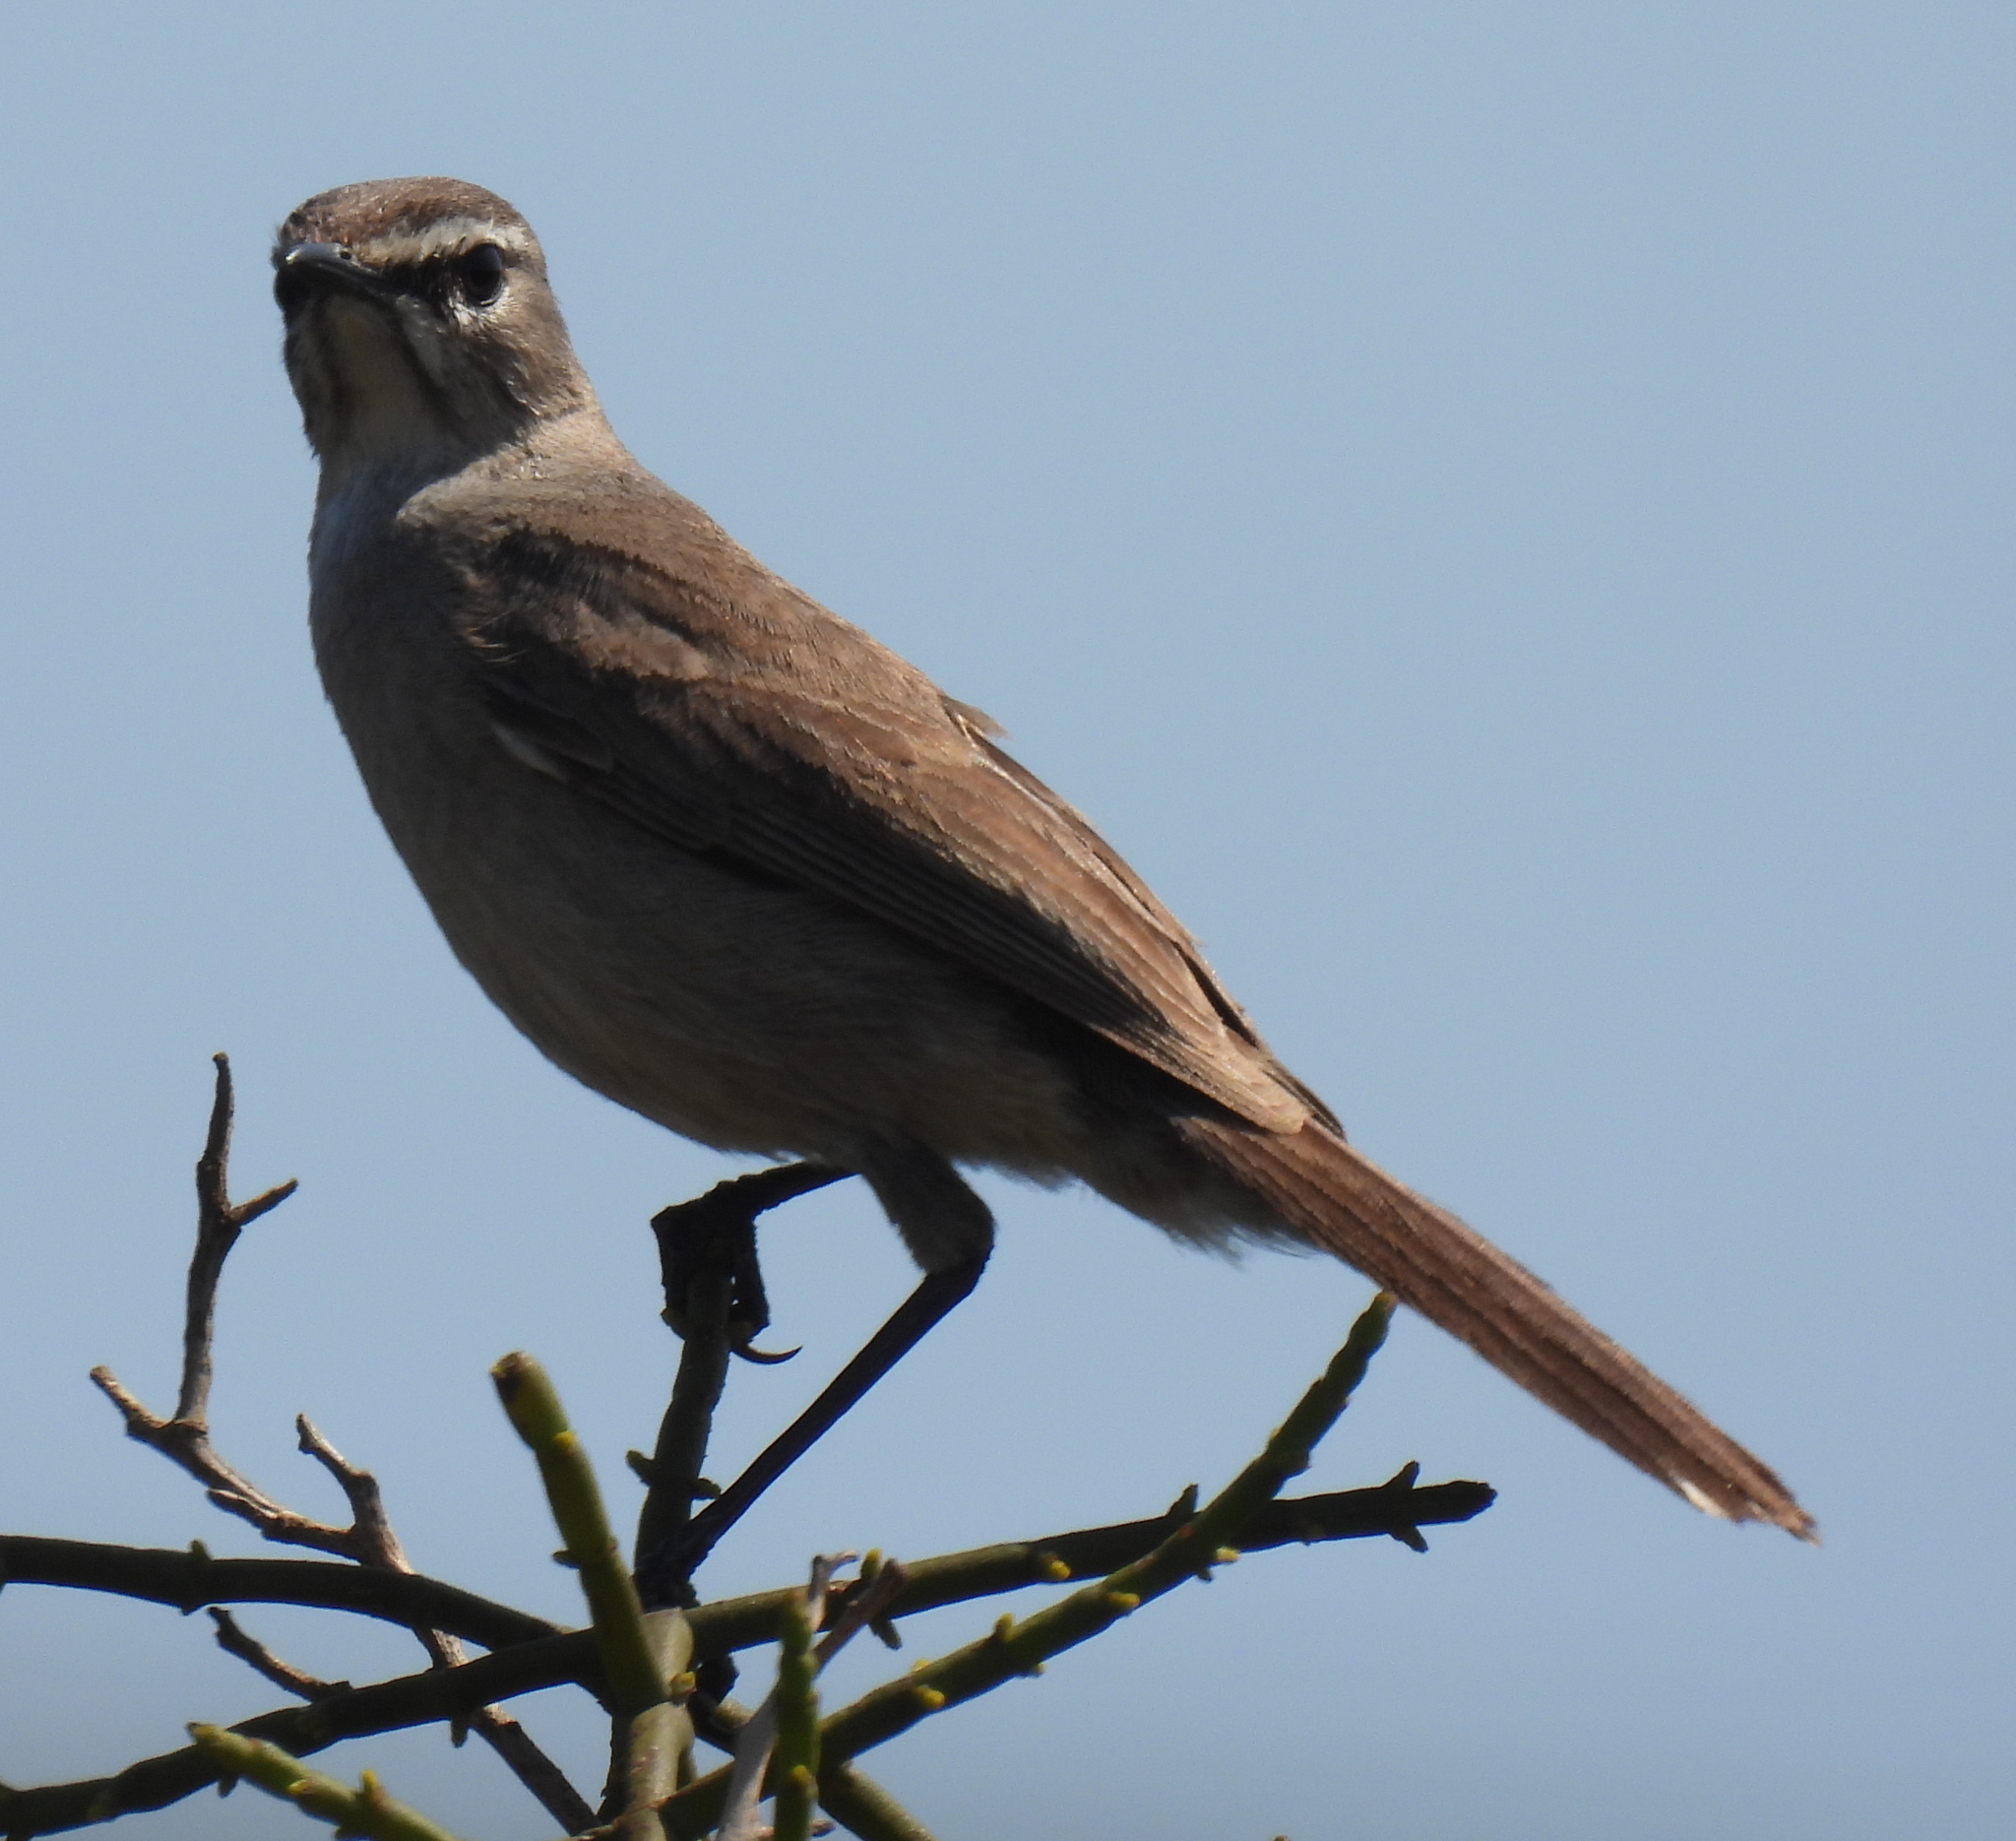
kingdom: Animalia
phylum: Chordata
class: Aves
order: Passeriformes
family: Muscicapidae
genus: Erythropygia
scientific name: Erythropygia coryphoeus
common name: Karoo scrub robin
